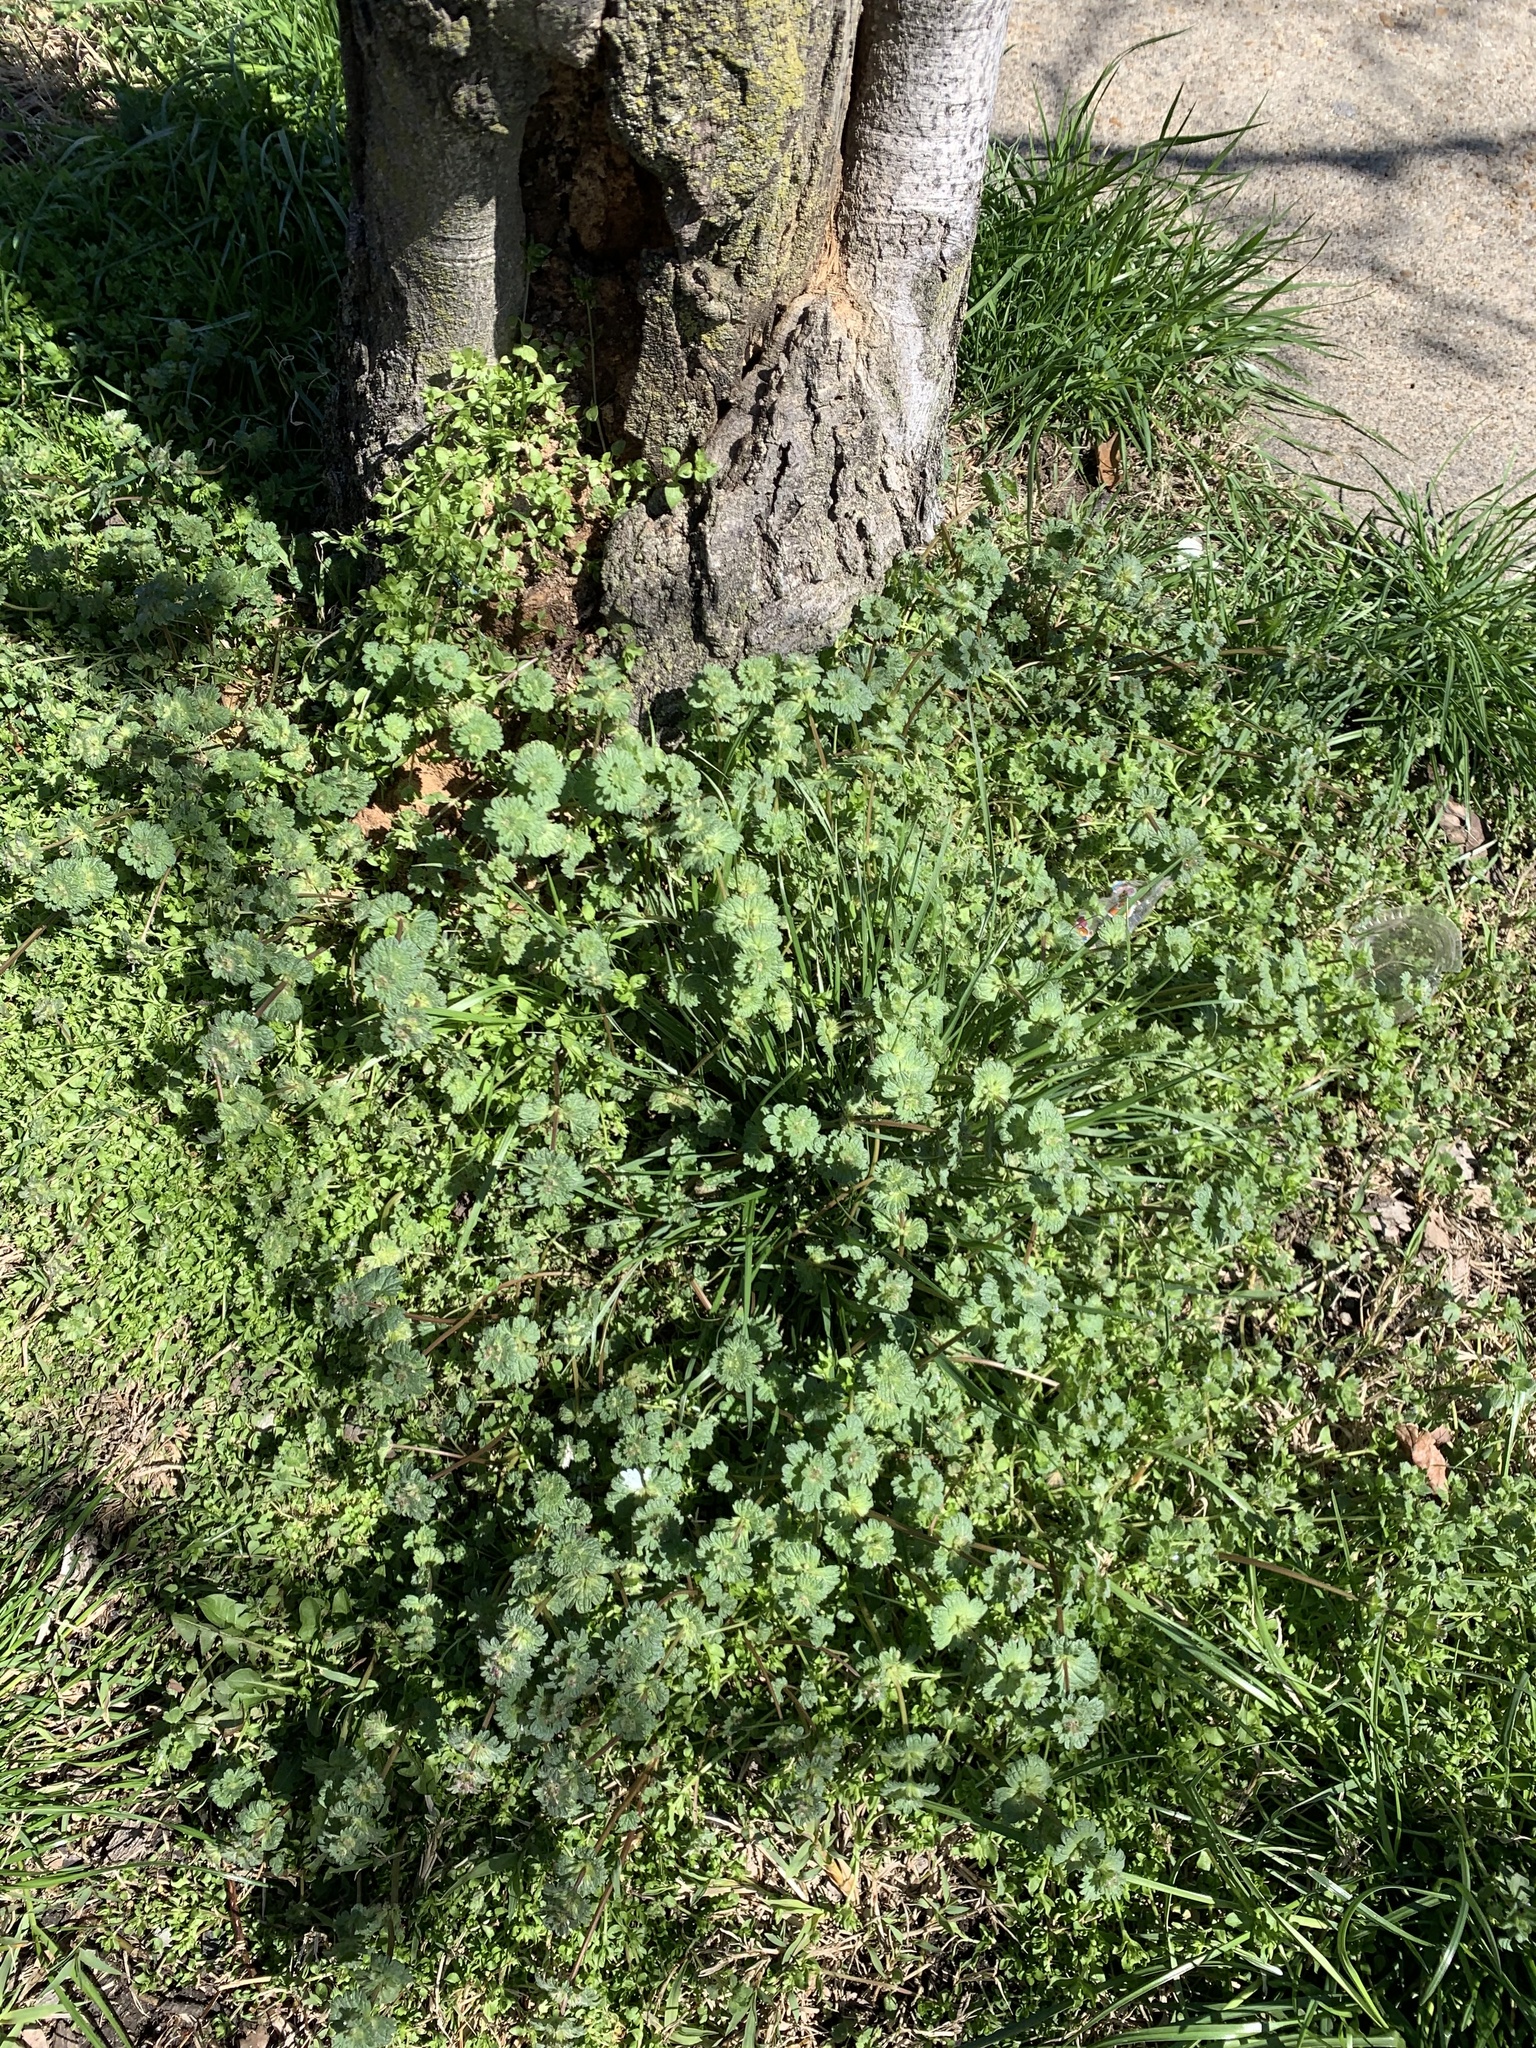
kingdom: Plantae
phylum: Tracheophyta
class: Magnoliopsida
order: Lamiales
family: Lamiaceae
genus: Lamium
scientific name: Lamium amplexicaule
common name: Henbit dead-nettle
